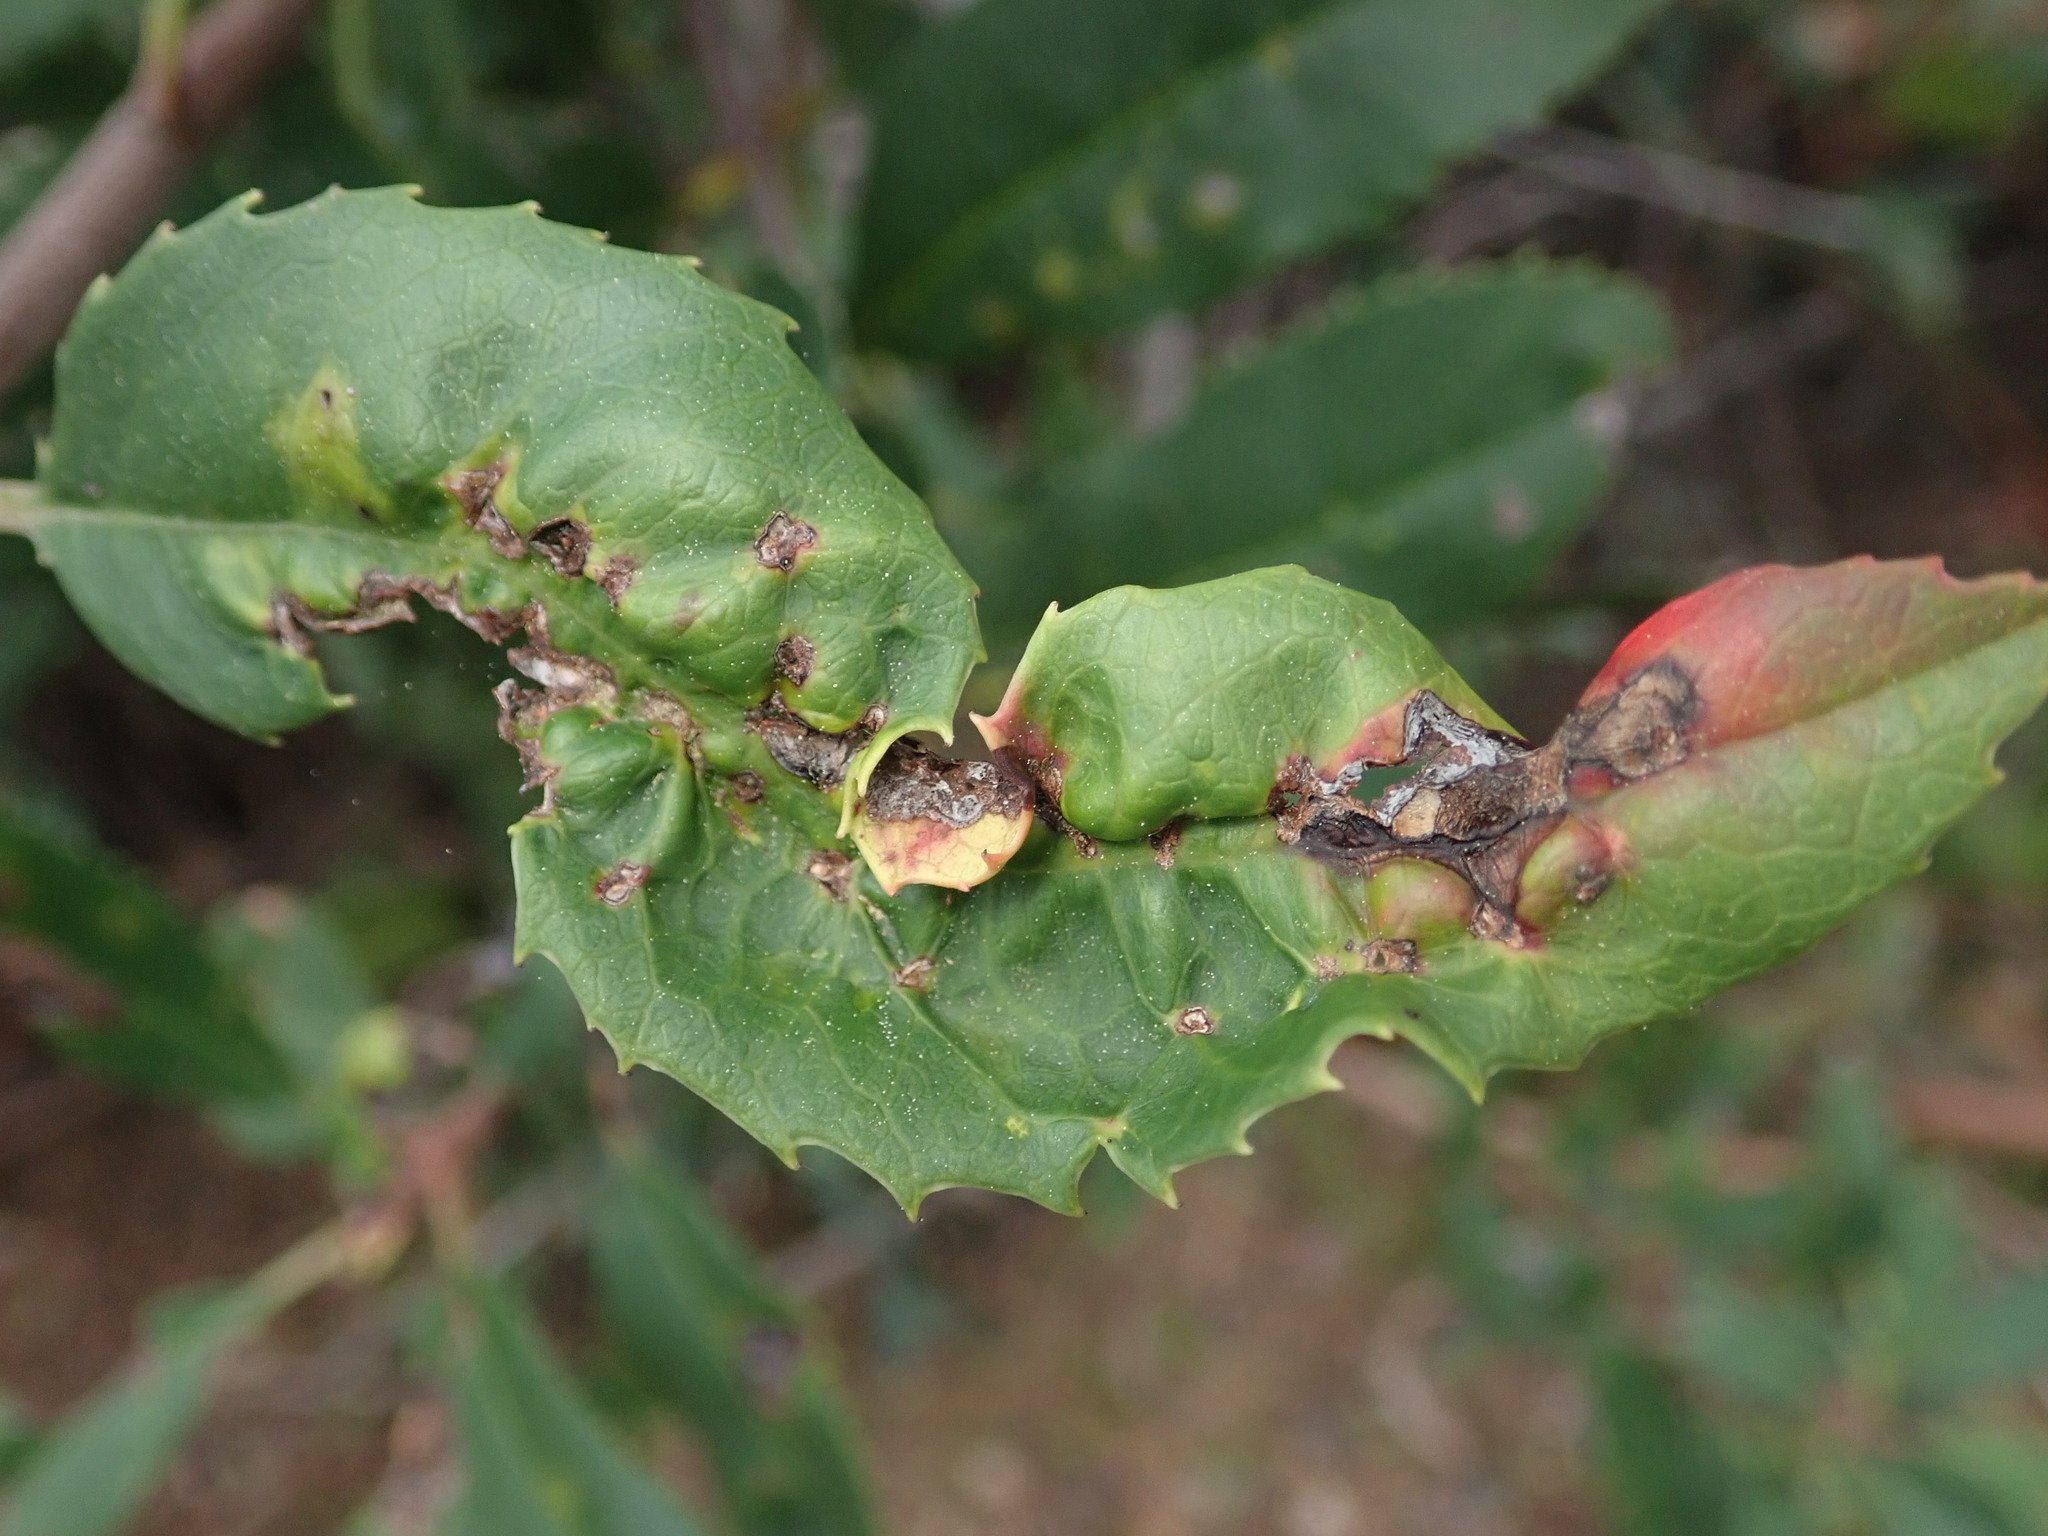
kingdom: Animalia
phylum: Arthropoda
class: Insecta
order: Thysanoptera
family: Phlaeothripidae
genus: Liothrips
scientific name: Liothrips ilex
